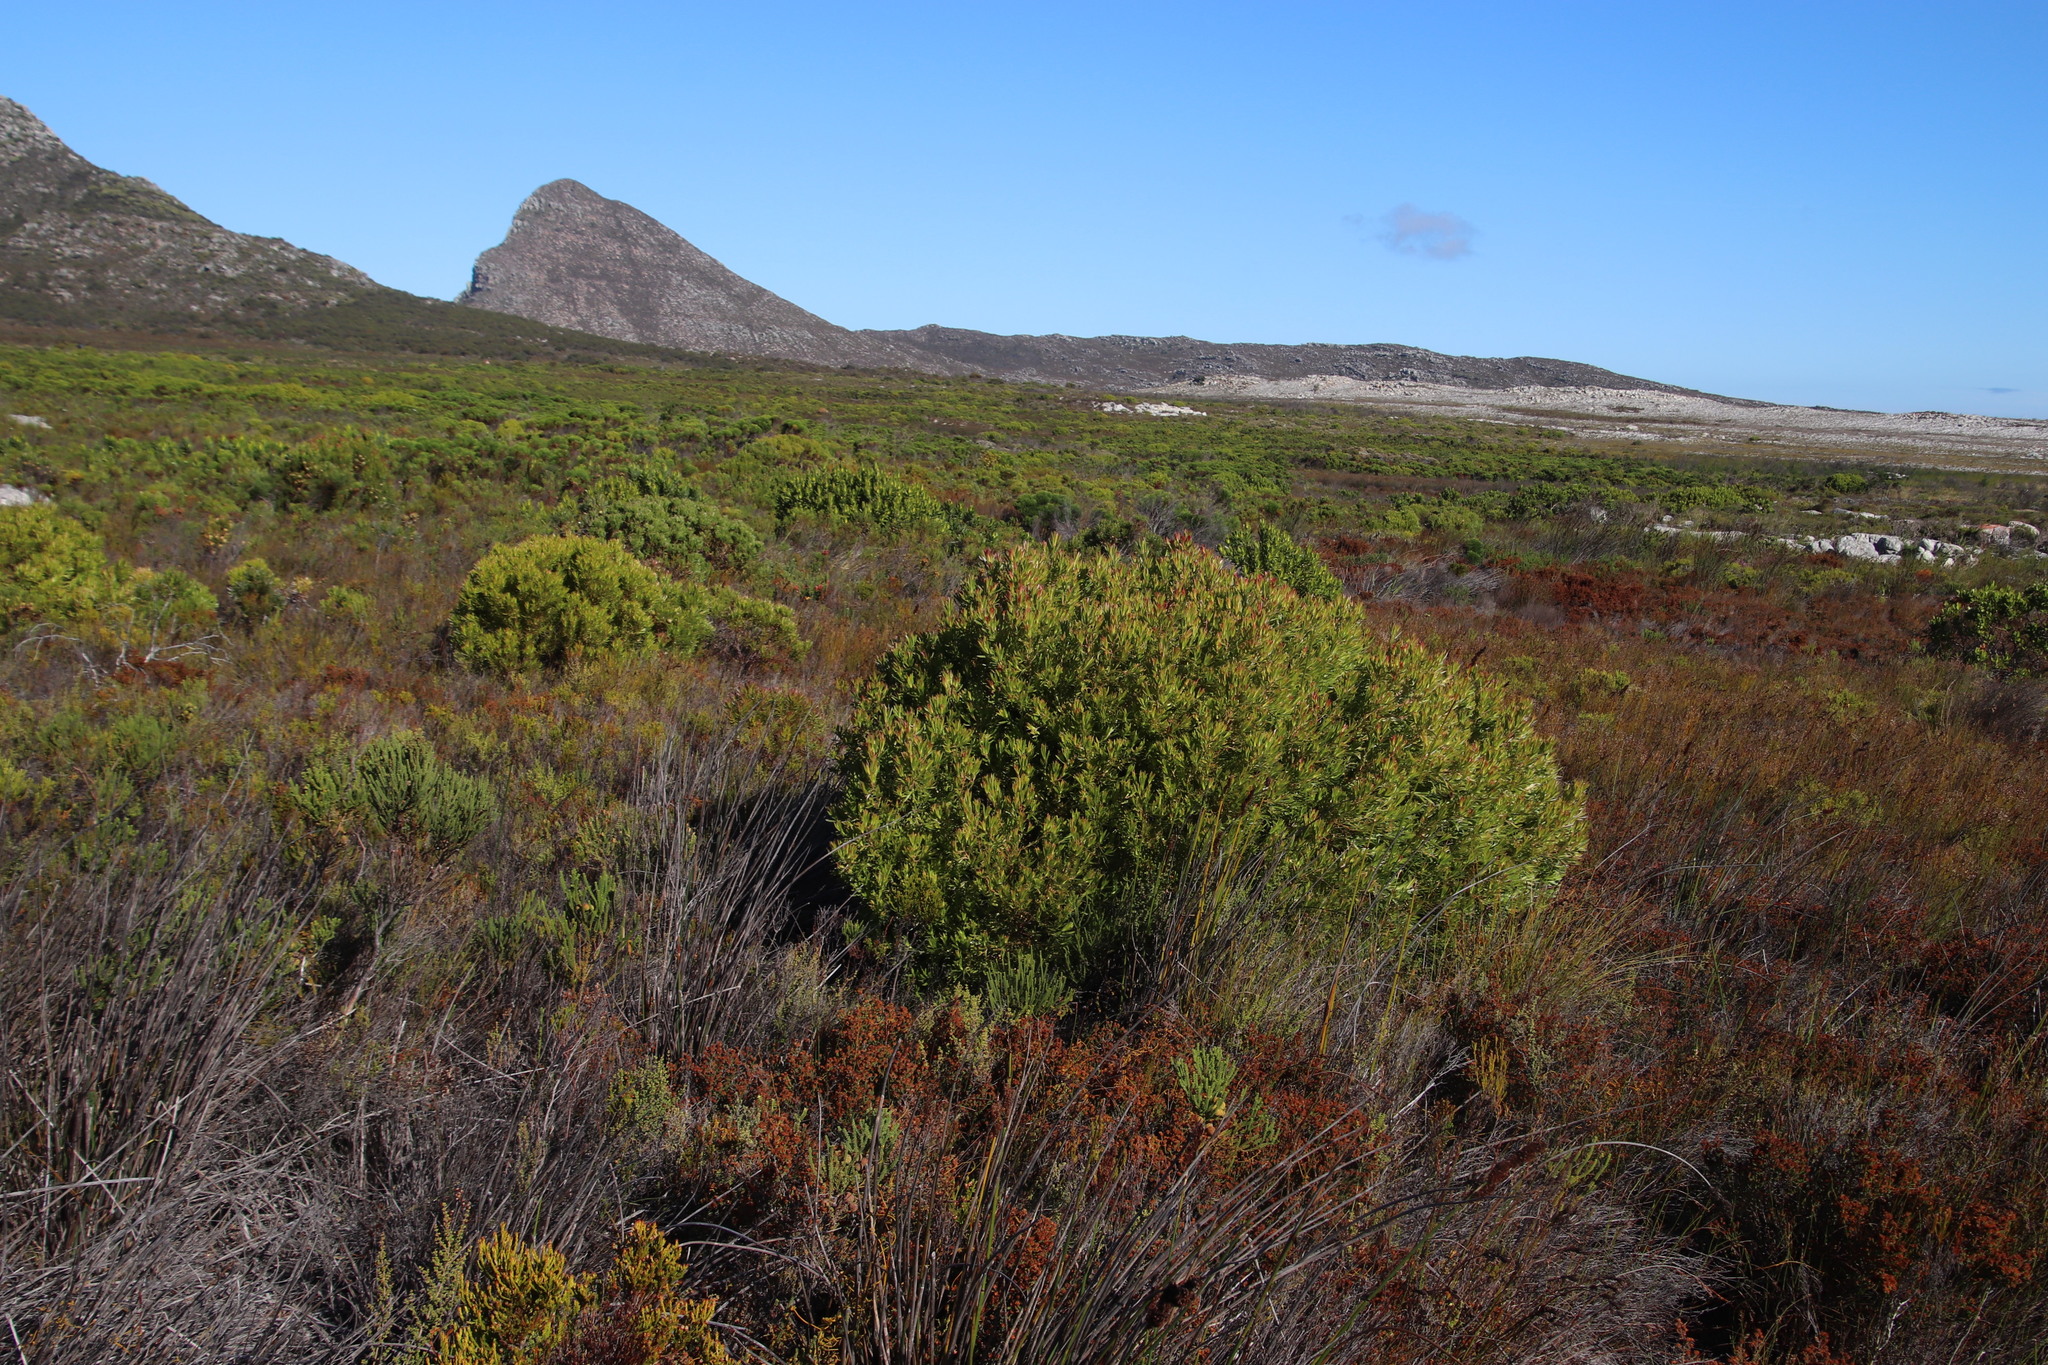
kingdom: Plantae
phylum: Tracheophyta
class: Magnoliopsida
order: Proteales
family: Proteaceae
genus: Leucadendron
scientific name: Leucadendron xanthoconus
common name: Sickle-leaf conebush
